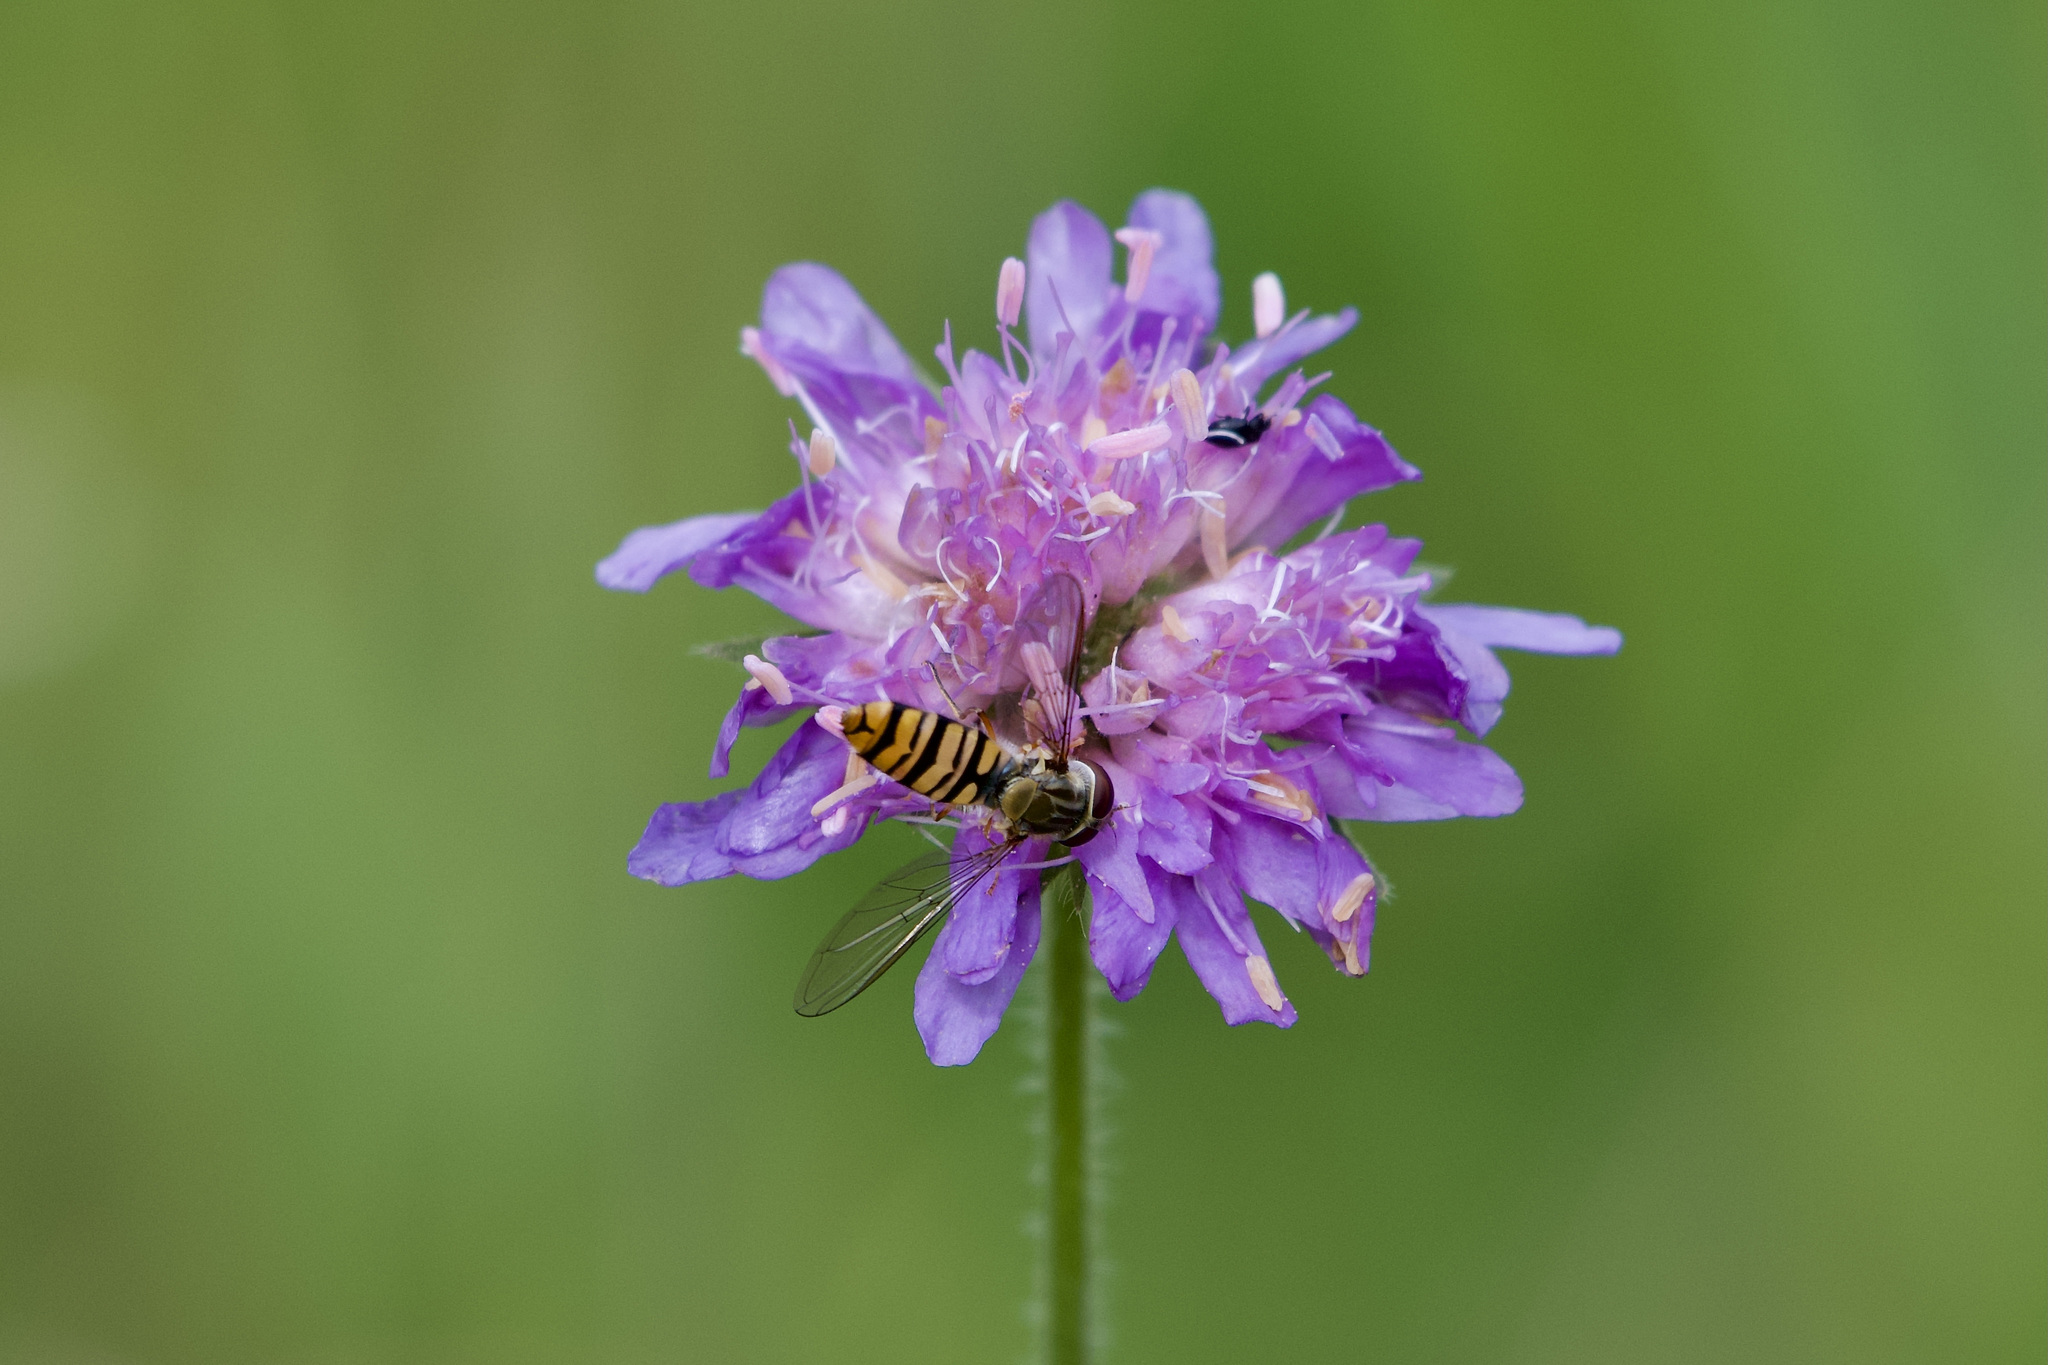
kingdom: Animalia
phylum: Arthropoda
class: Insecta
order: Diptera
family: Syrphidae
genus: Episyrphus
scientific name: Episyrphus balteatus
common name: Marmalade hoverfly
